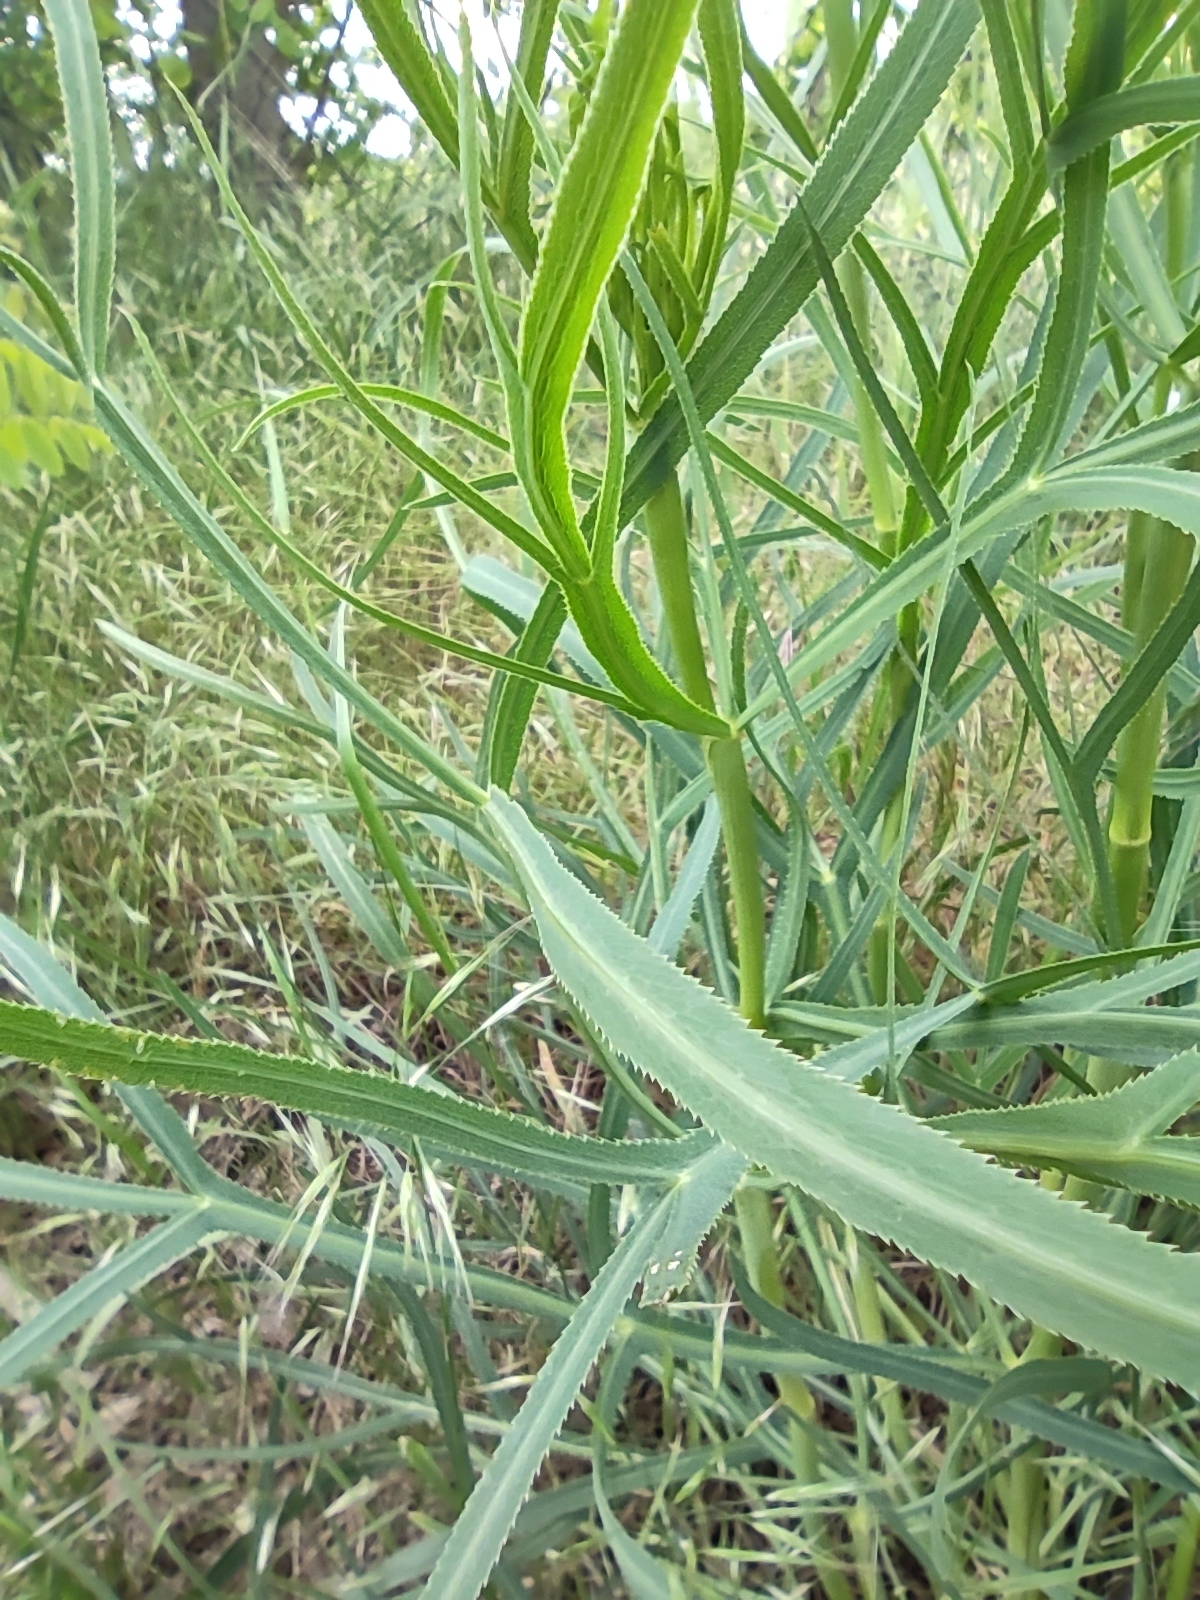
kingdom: Plantae
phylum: Tracheophyta
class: Magnoliopsida
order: Apiales
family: Apiaceae
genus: Falcaria
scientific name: Falcaria vulgaris
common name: Longleaf
